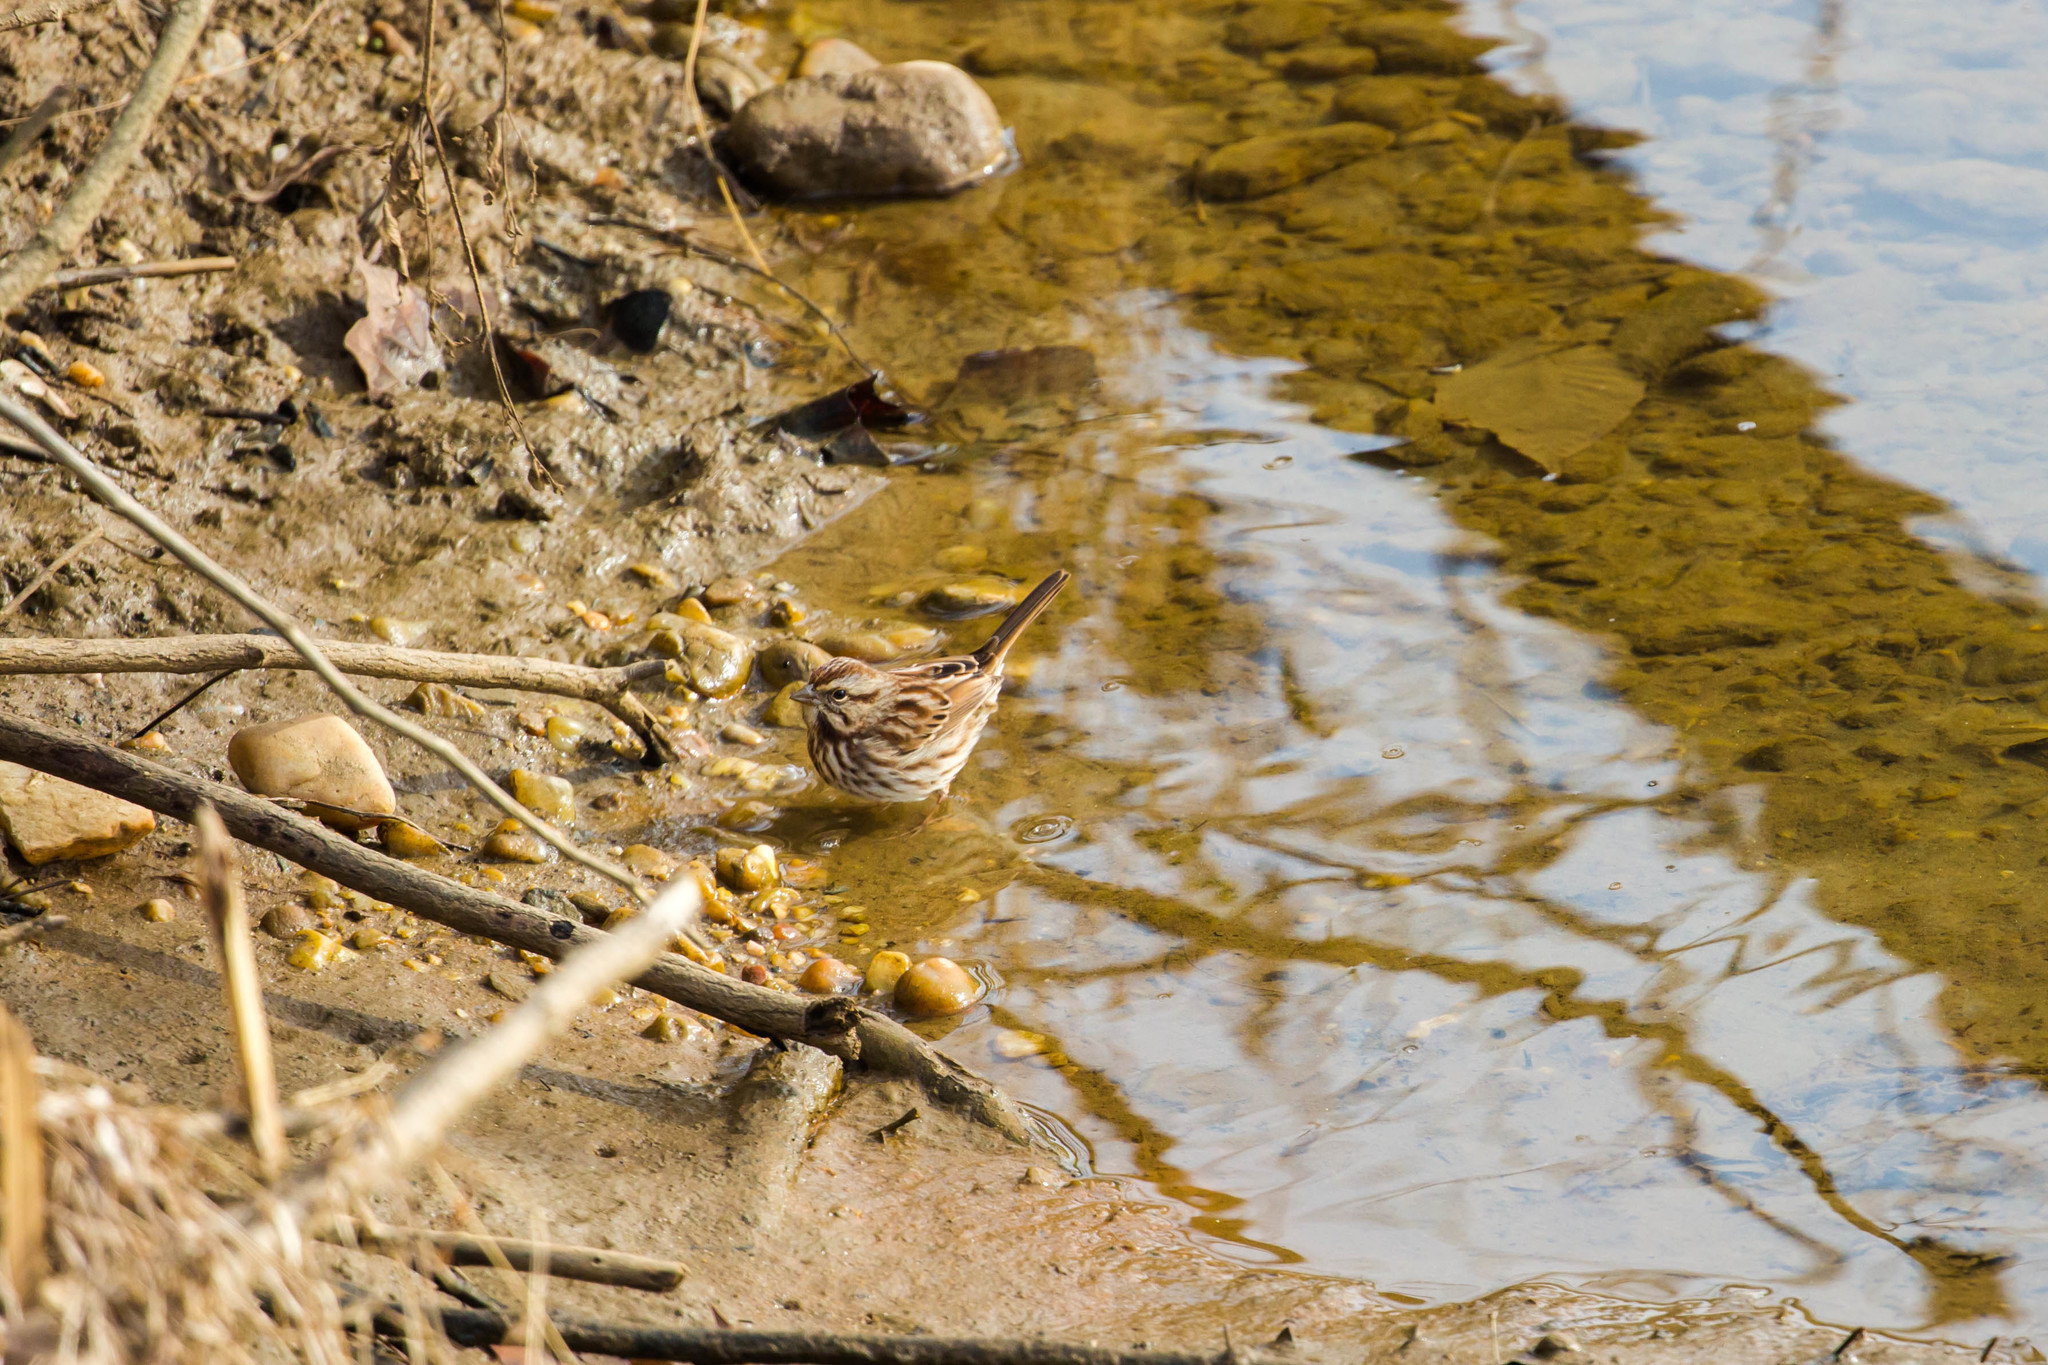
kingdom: Animalia
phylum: Chordata
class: Aves
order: Passeriformes
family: Passerellidae
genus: Melospiza
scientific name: Melospiza melodia
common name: Song sparrow
